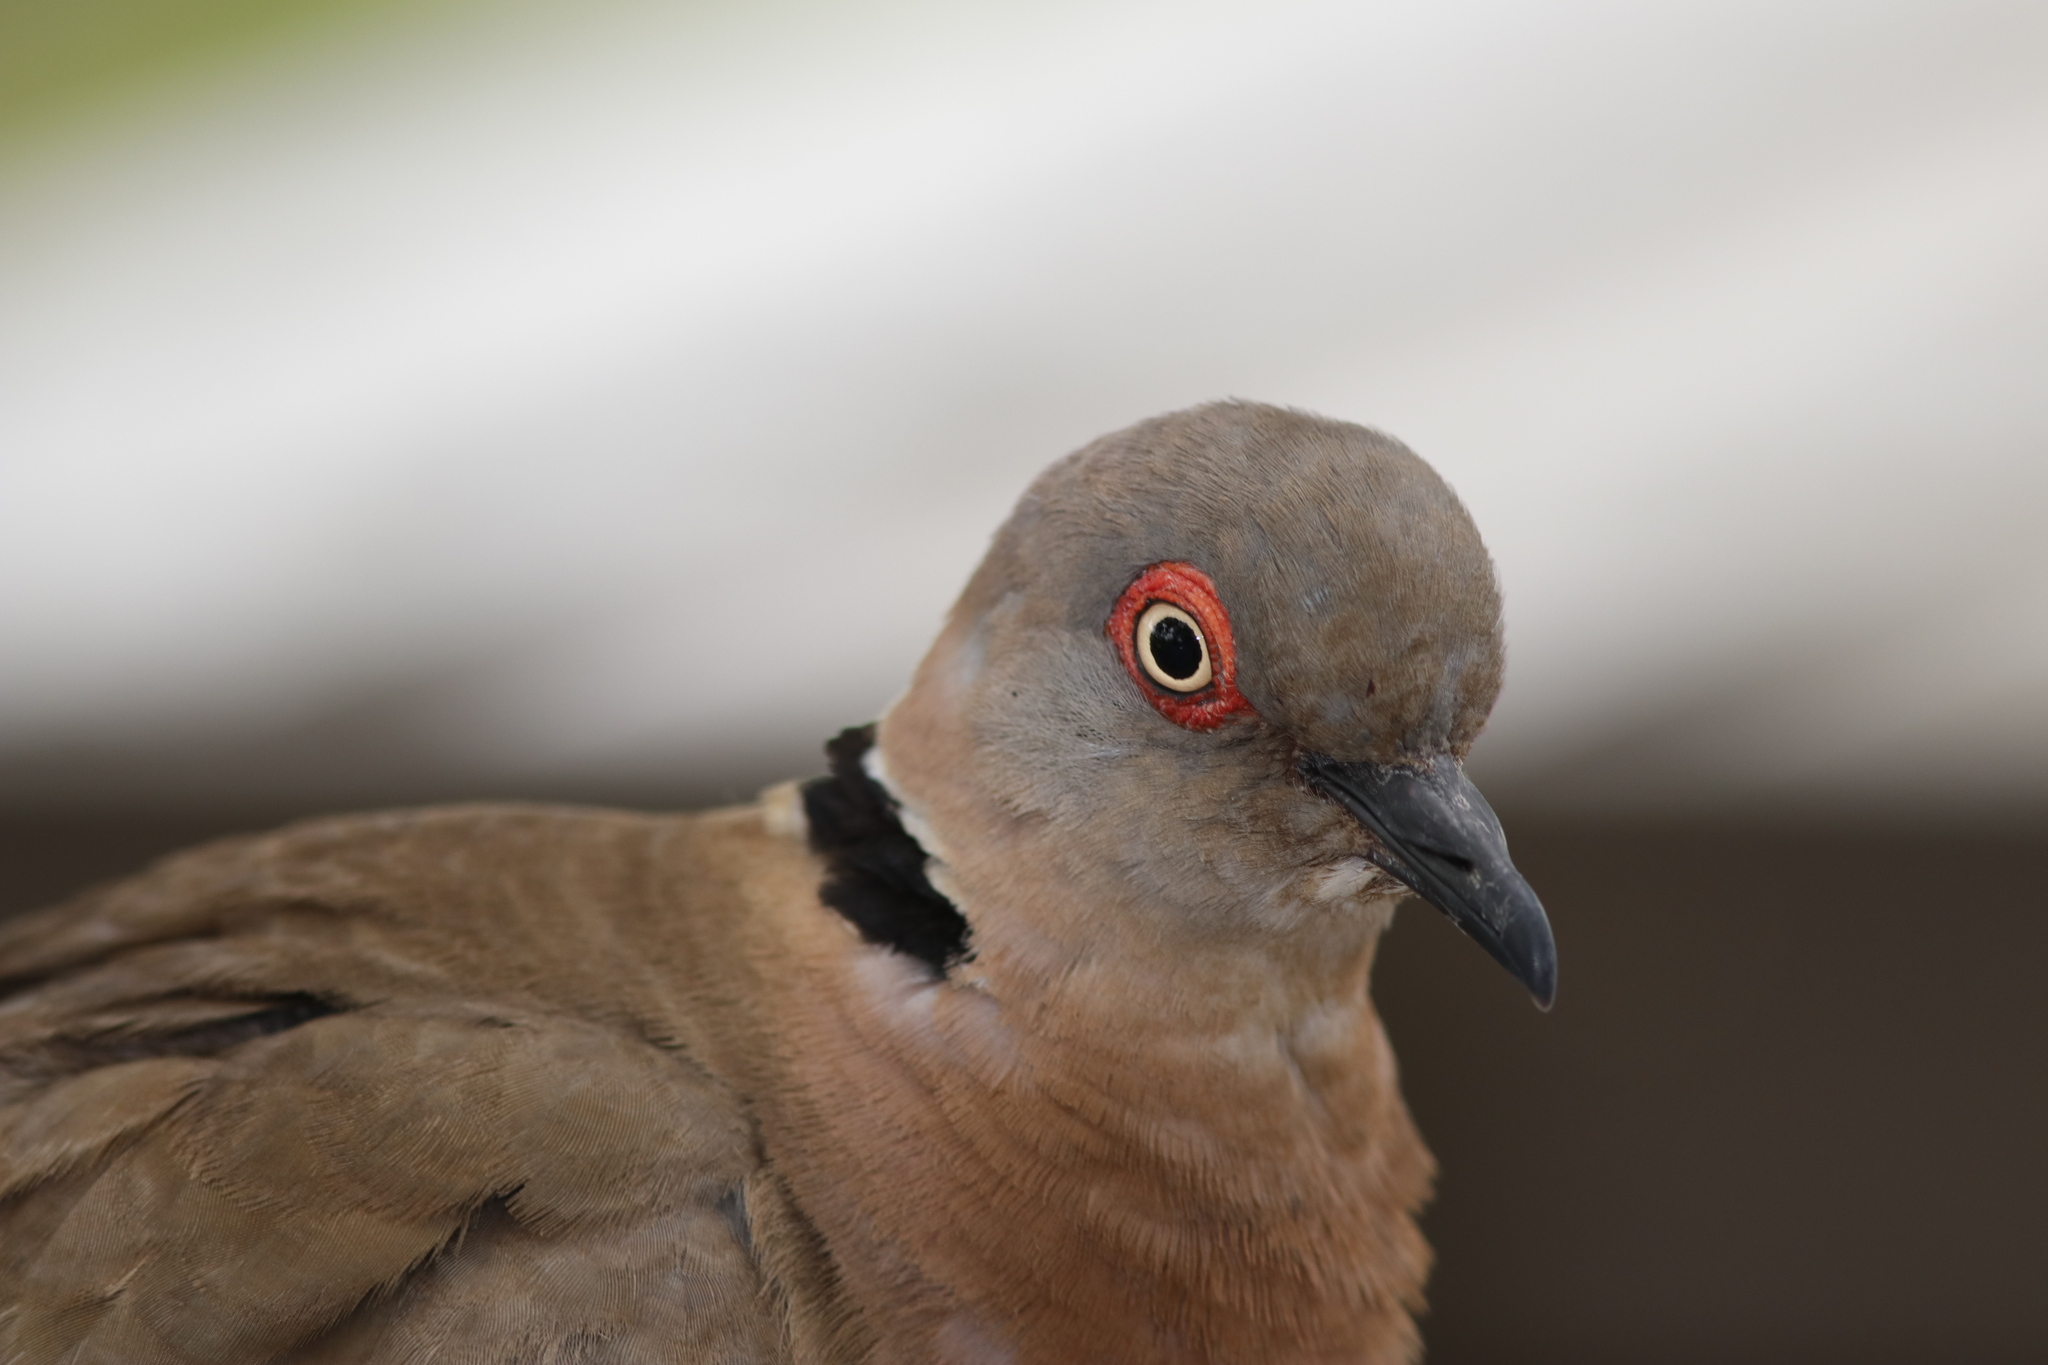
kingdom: Animalia
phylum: Chordata
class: Aves
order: Columbiformes
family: Columbidae
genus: Streptopelia
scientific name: Streptopelia decipiens
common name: Mourning collared dove
